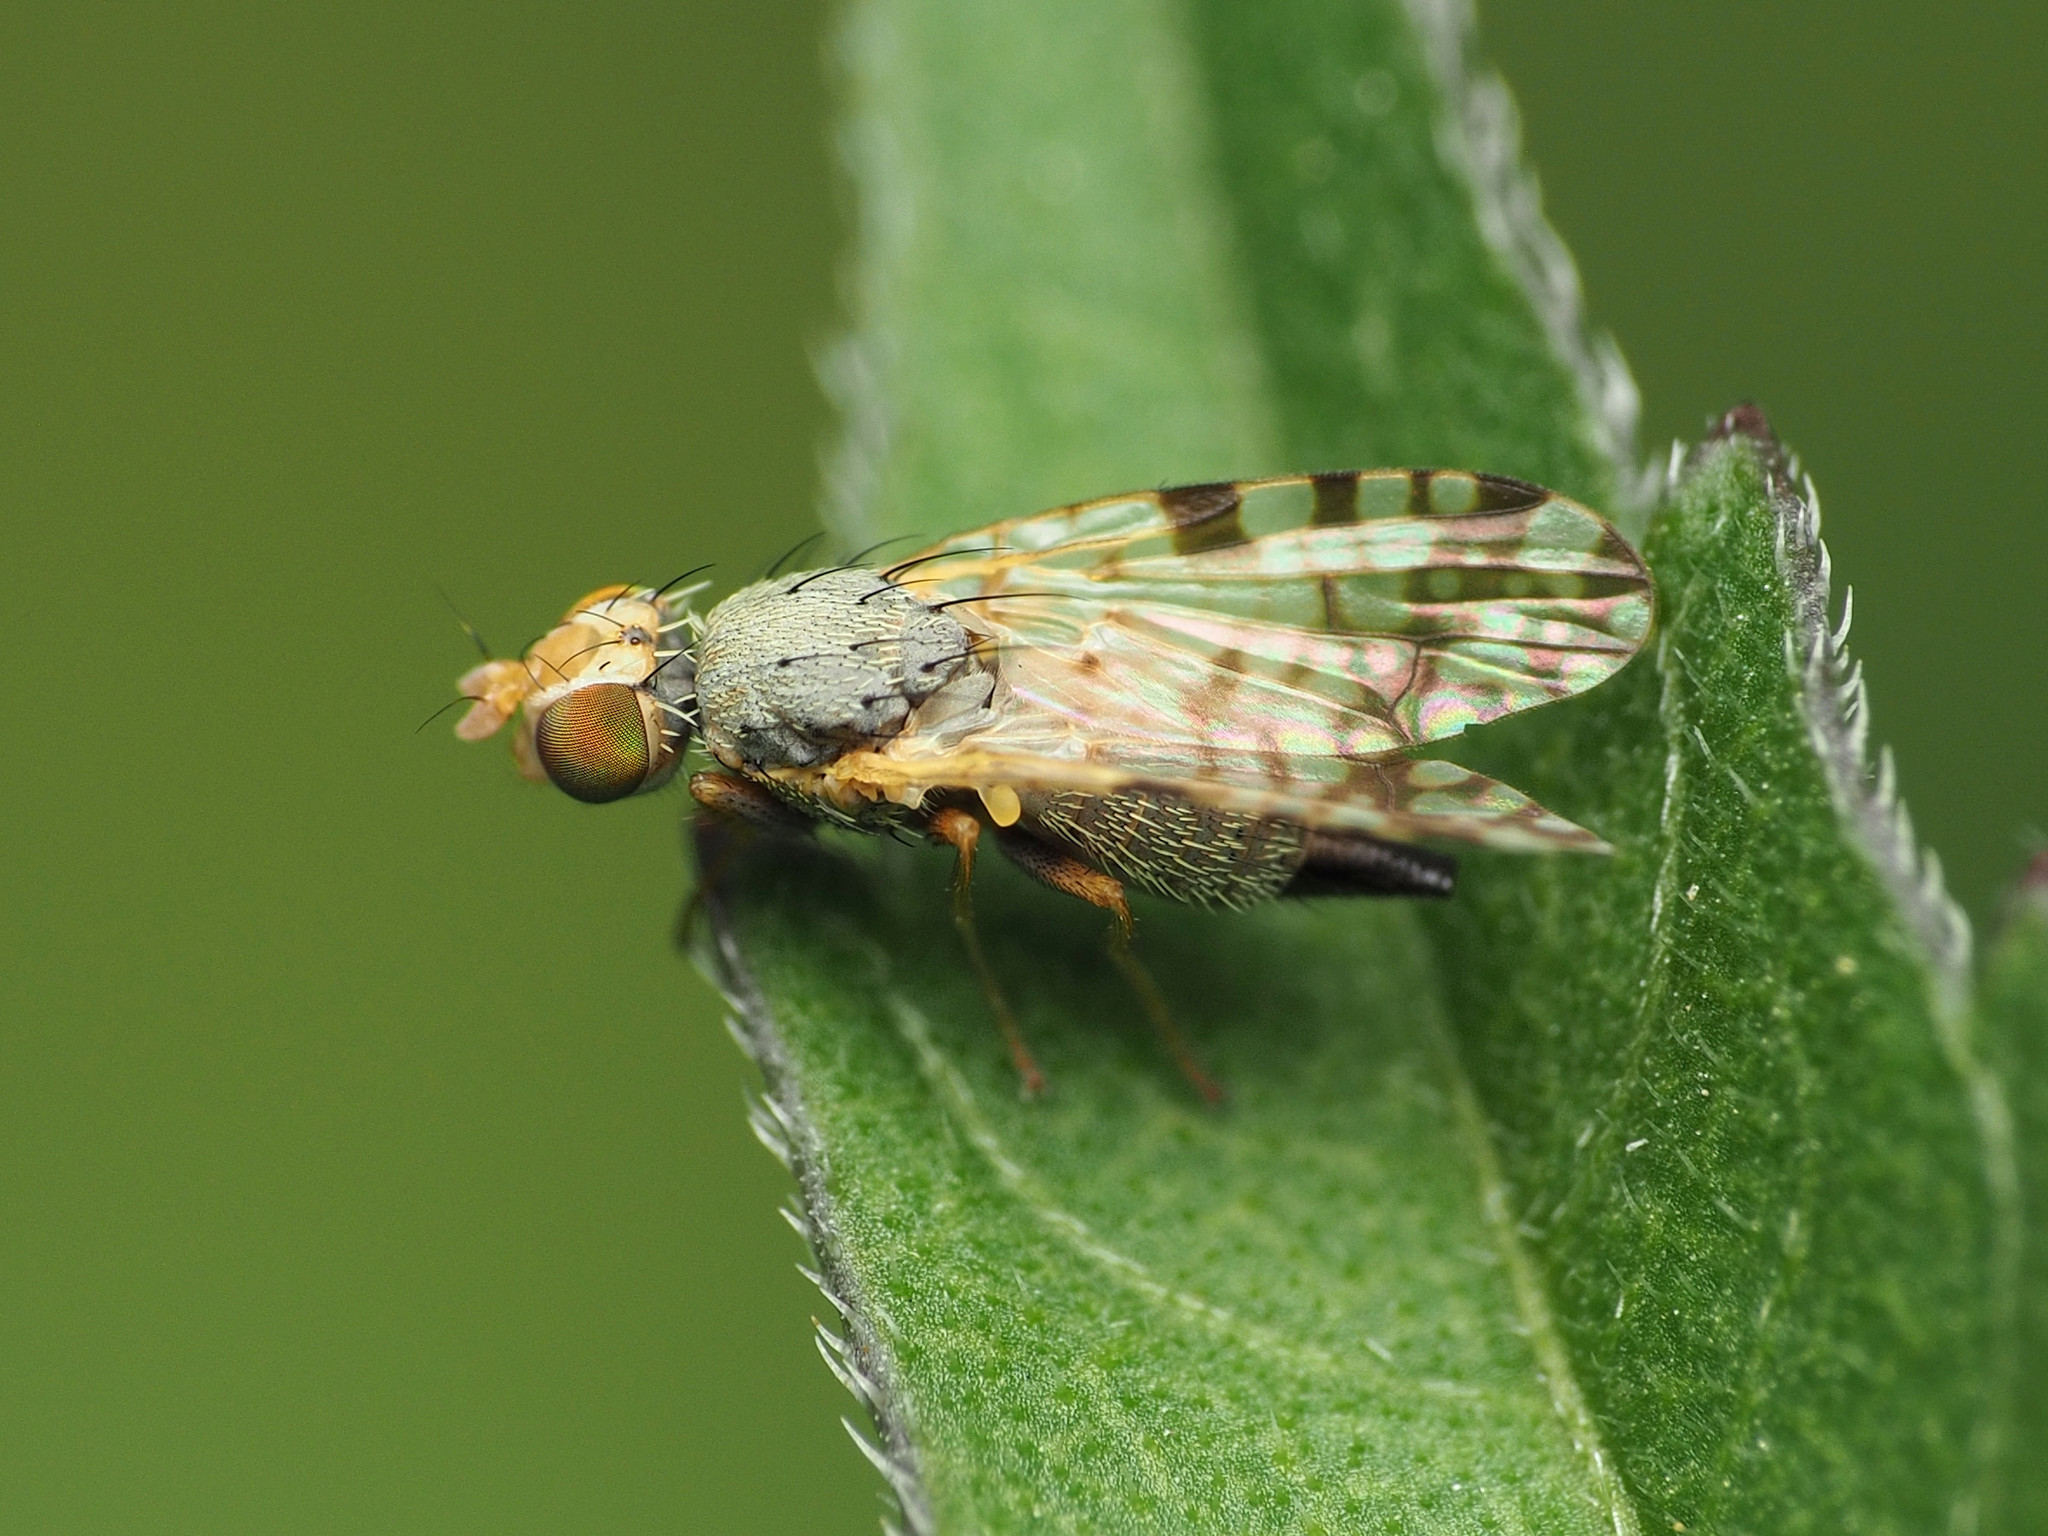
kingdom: Animalia
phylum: Arthropoda
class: Insecta
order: Diptera
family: Tephritidae
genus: Dioxyna
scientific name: Dioxyna picciola
